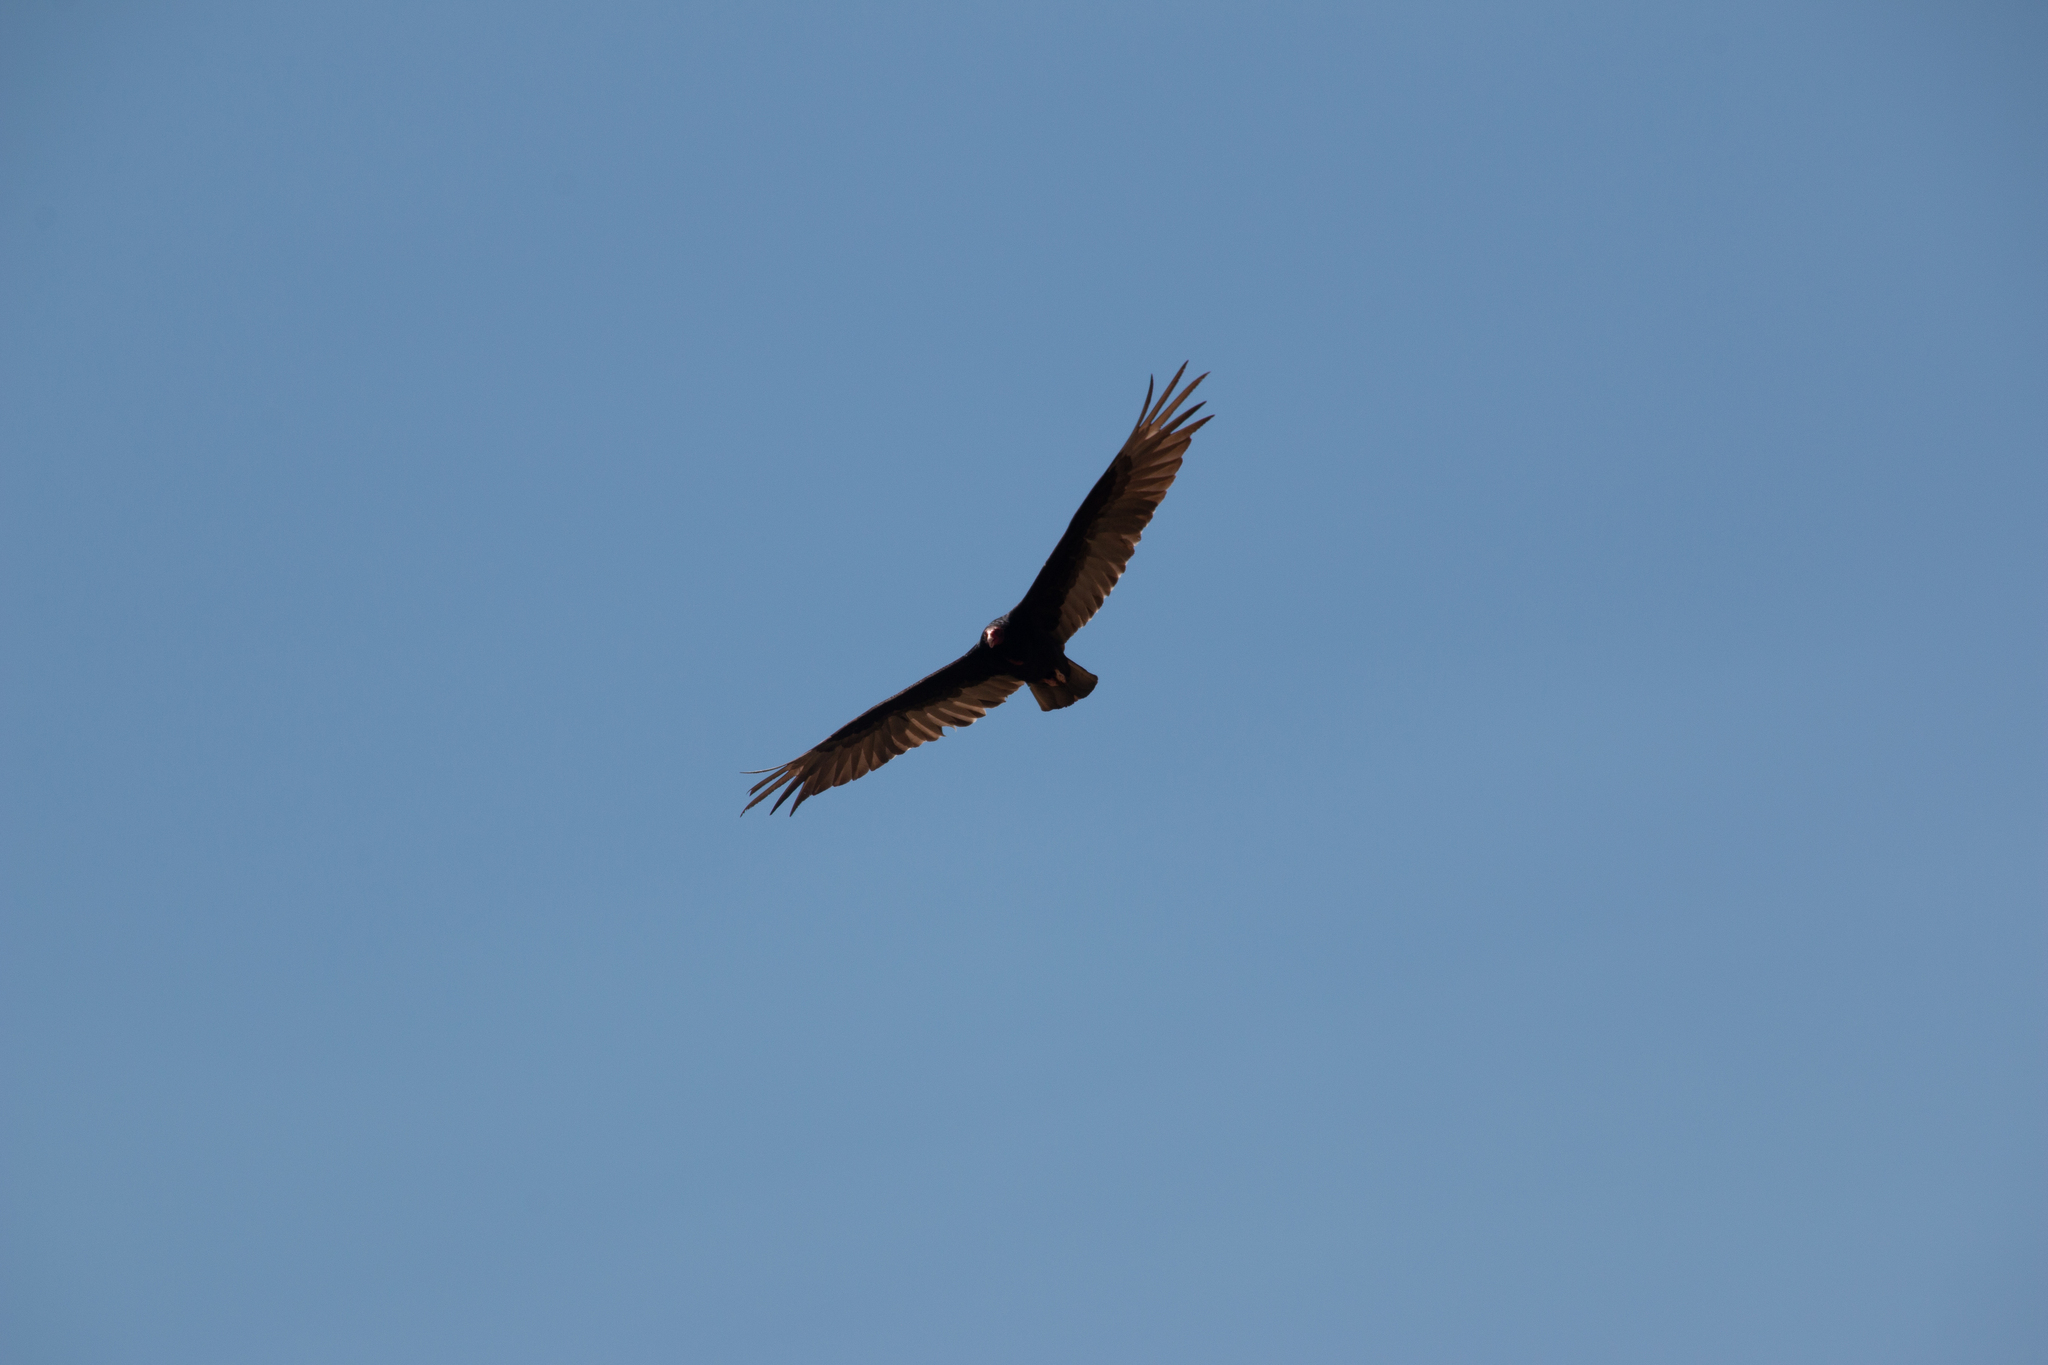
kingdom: Animalia
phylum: Chordata
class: Aves
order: Accipitriformes
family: Cathartidae
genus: Cathartes
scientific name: Cathartes aura
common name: Turkey vulture
